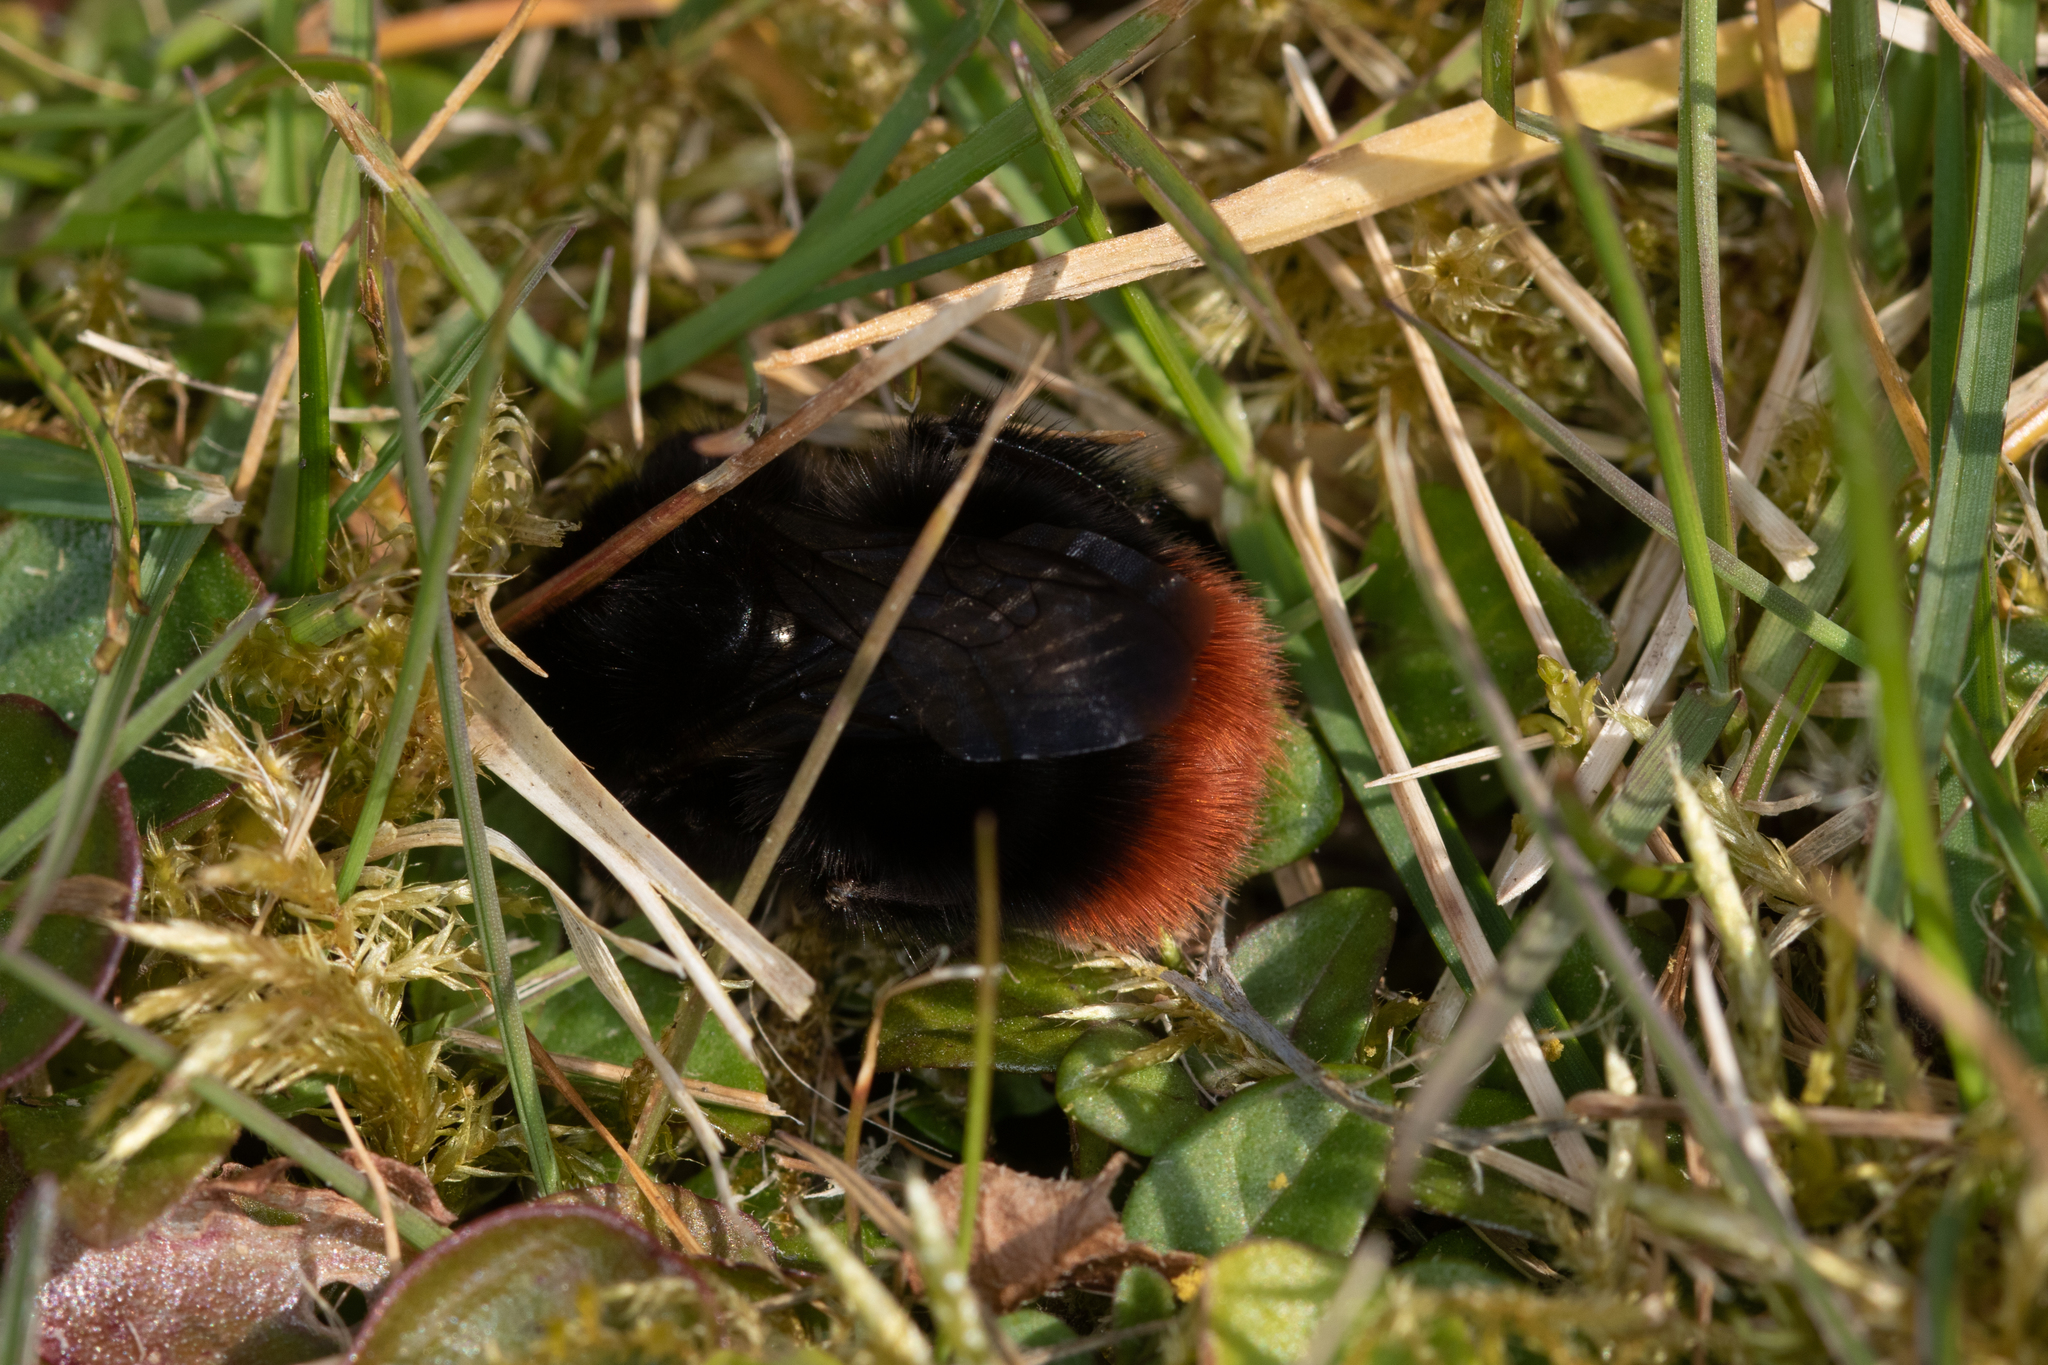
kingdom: Animalia
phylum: Arthropoda
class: Insecta
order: Hymenoptera
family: Apidae
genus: Bombus
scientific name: Bombus lapidarius
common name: Large red-tailed humble-bee
